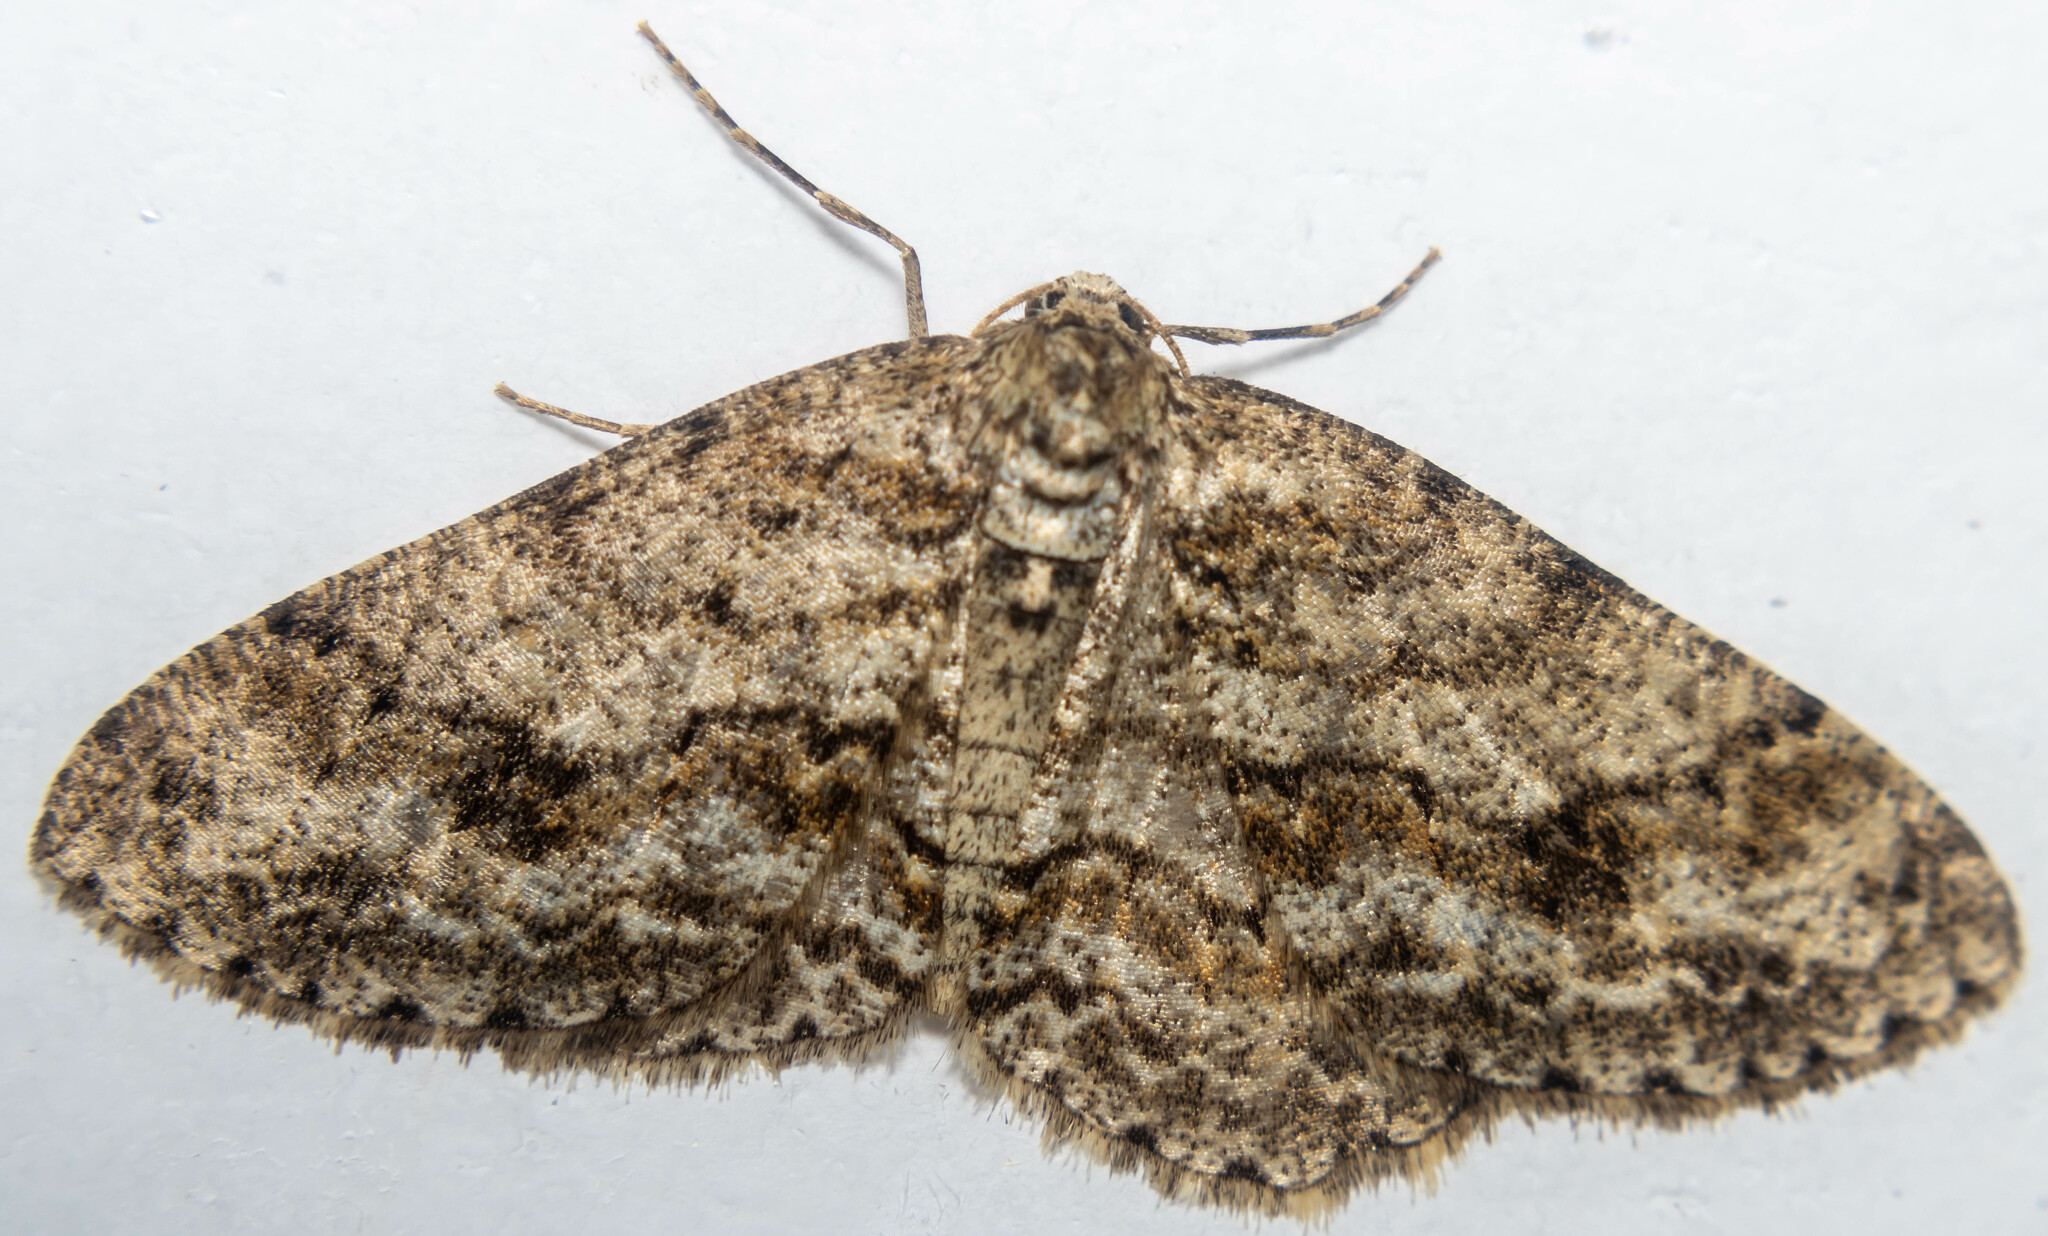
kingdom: Animalia
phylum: Arthropoda
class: Insecta
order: Lepidoptera
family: Geometridae
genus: Ectropis
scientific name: Ectropis crepuscularia
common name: Engrailed
